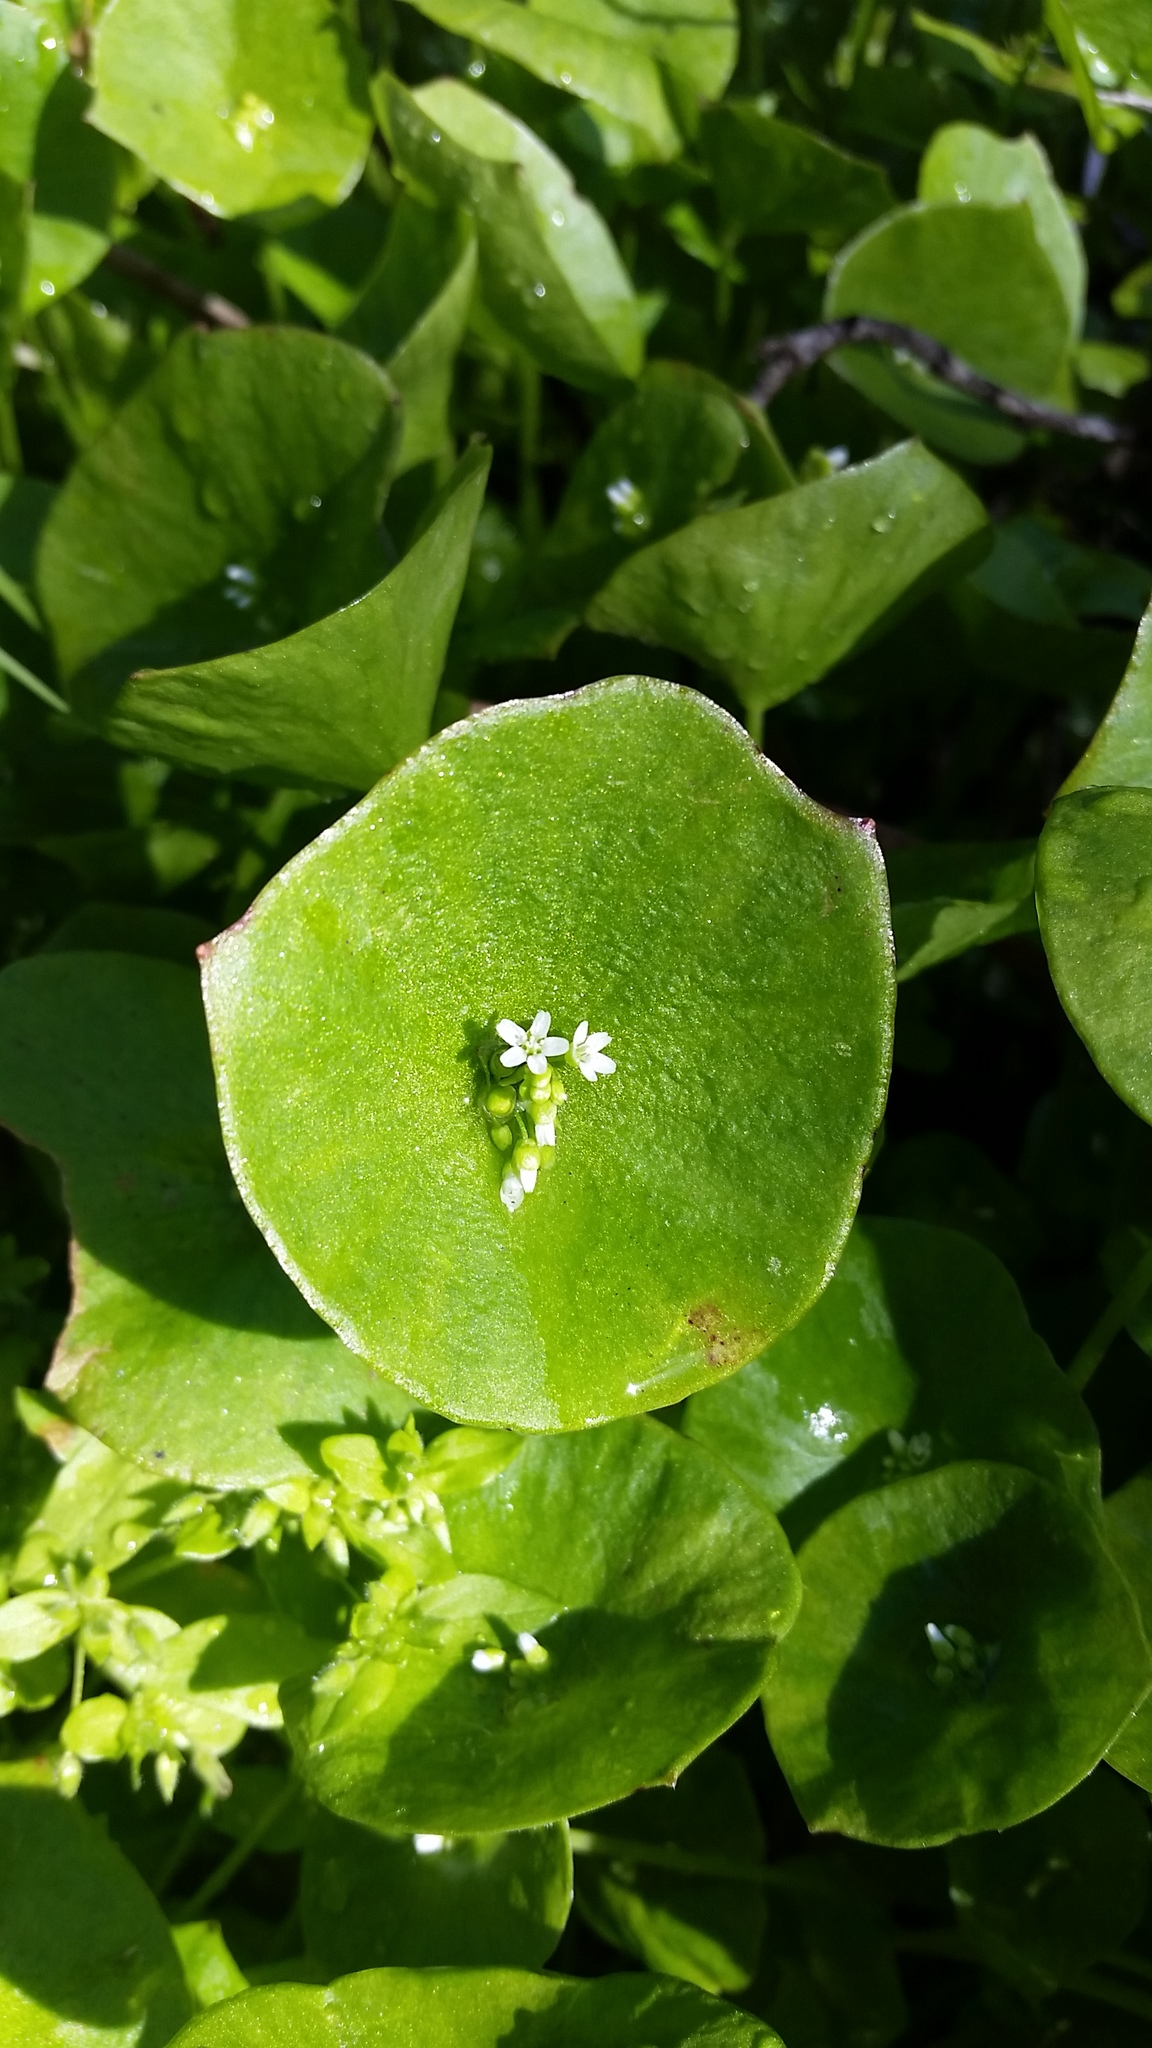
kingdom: Plantae
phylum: Tracheophyta
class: Magnoliopsida
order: Caryophyllales
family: Montiaceae
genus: Claytonia
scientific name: Claytonia perfoliata
